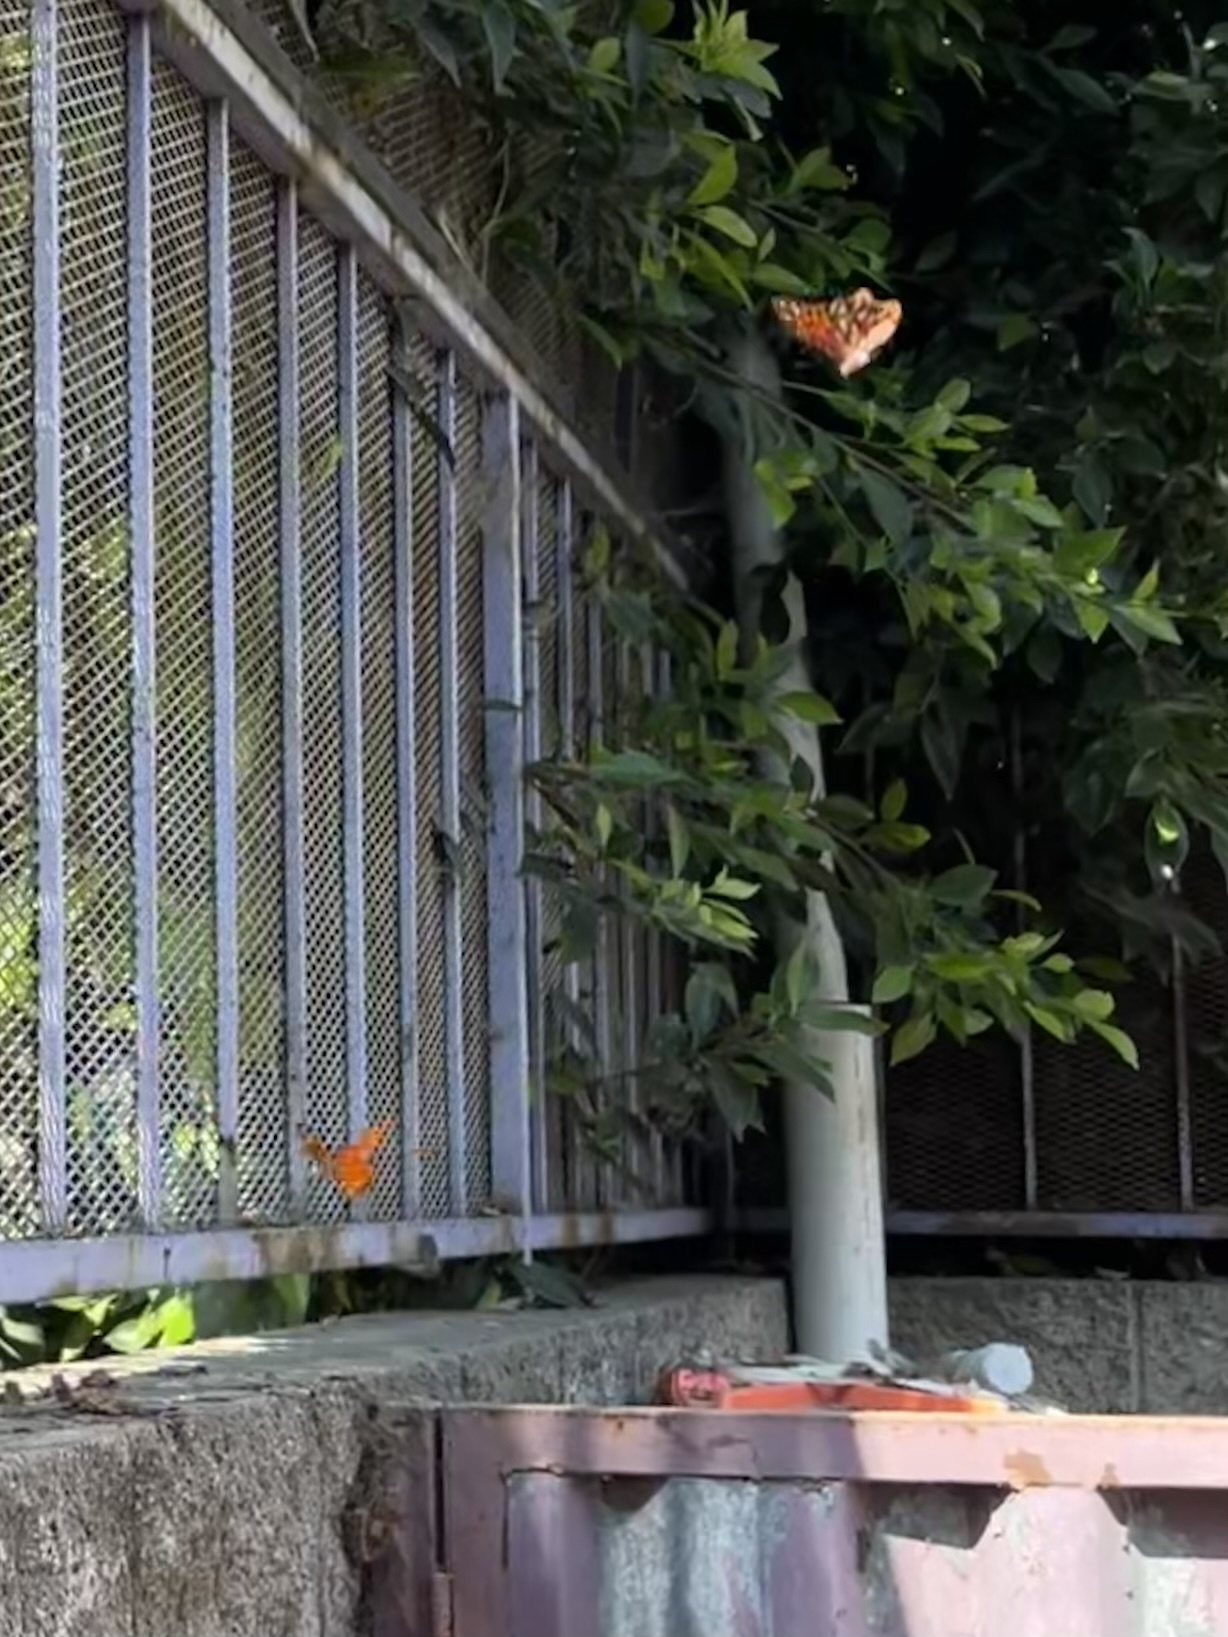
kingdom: Animalia
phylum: Arthropoda
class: Insecta
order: Lepidoptera
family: Nymphalidae
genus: Dione
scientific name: Dione vanillae
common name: Gulf fritillary
